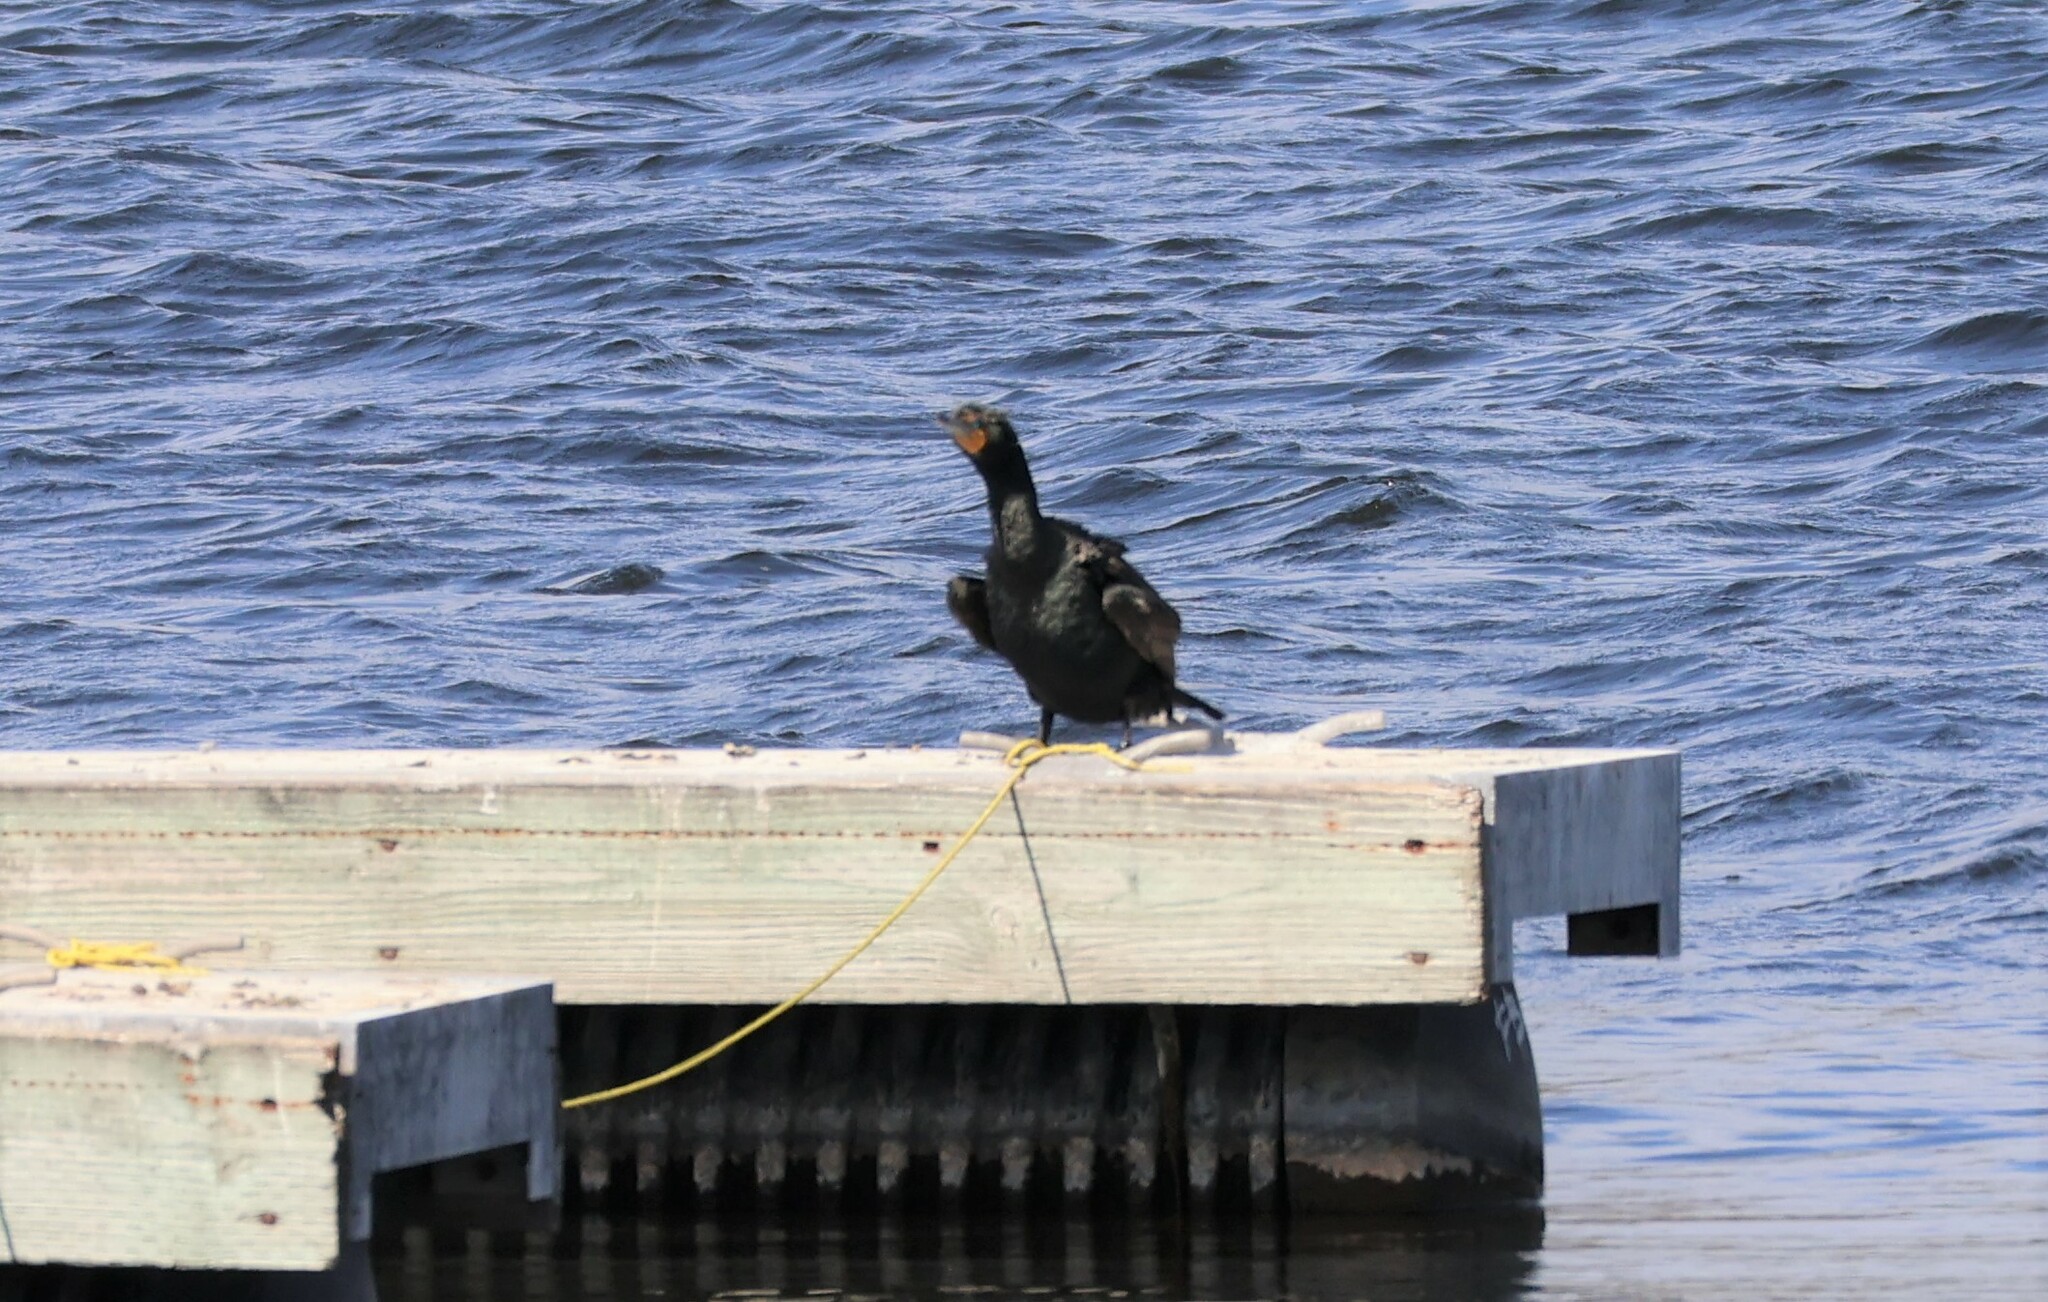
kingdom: Animalia
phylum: Chordata
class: Aves
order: Suliformes
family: Phalacrocoracidae
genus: Phalacrocorax
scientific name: Phalacrocorax auritus
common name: Double-crested cormorant
